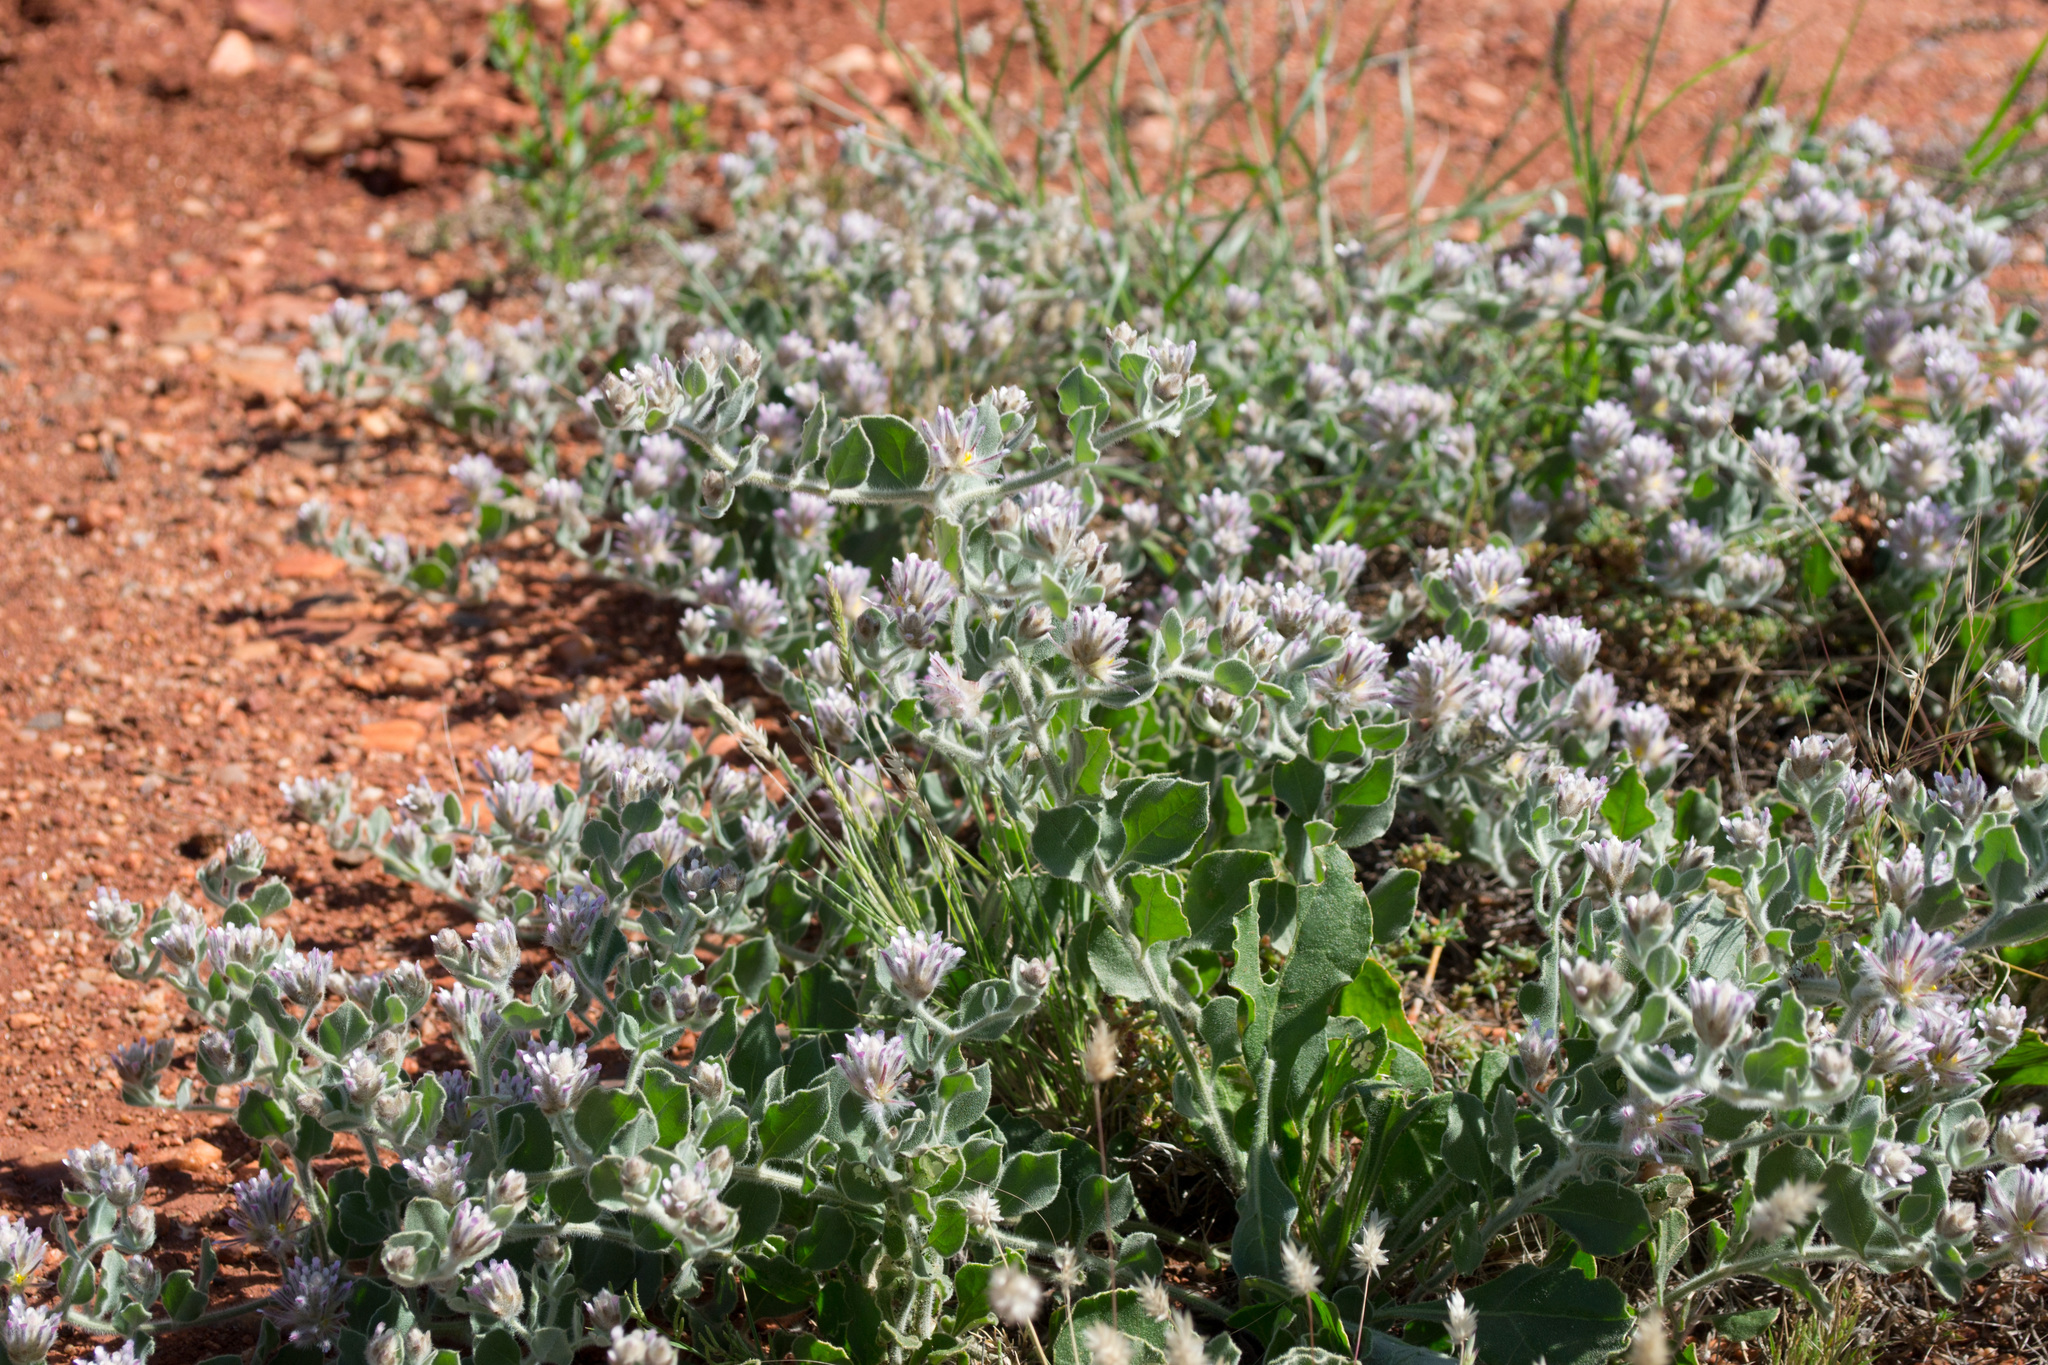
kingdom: Plantae
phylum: Tracheophyta
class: Magnoliopsida
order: Caryophyllales
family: Amaranthaceae
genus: Ptilotus
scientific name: Ptilotus appendiculatus
